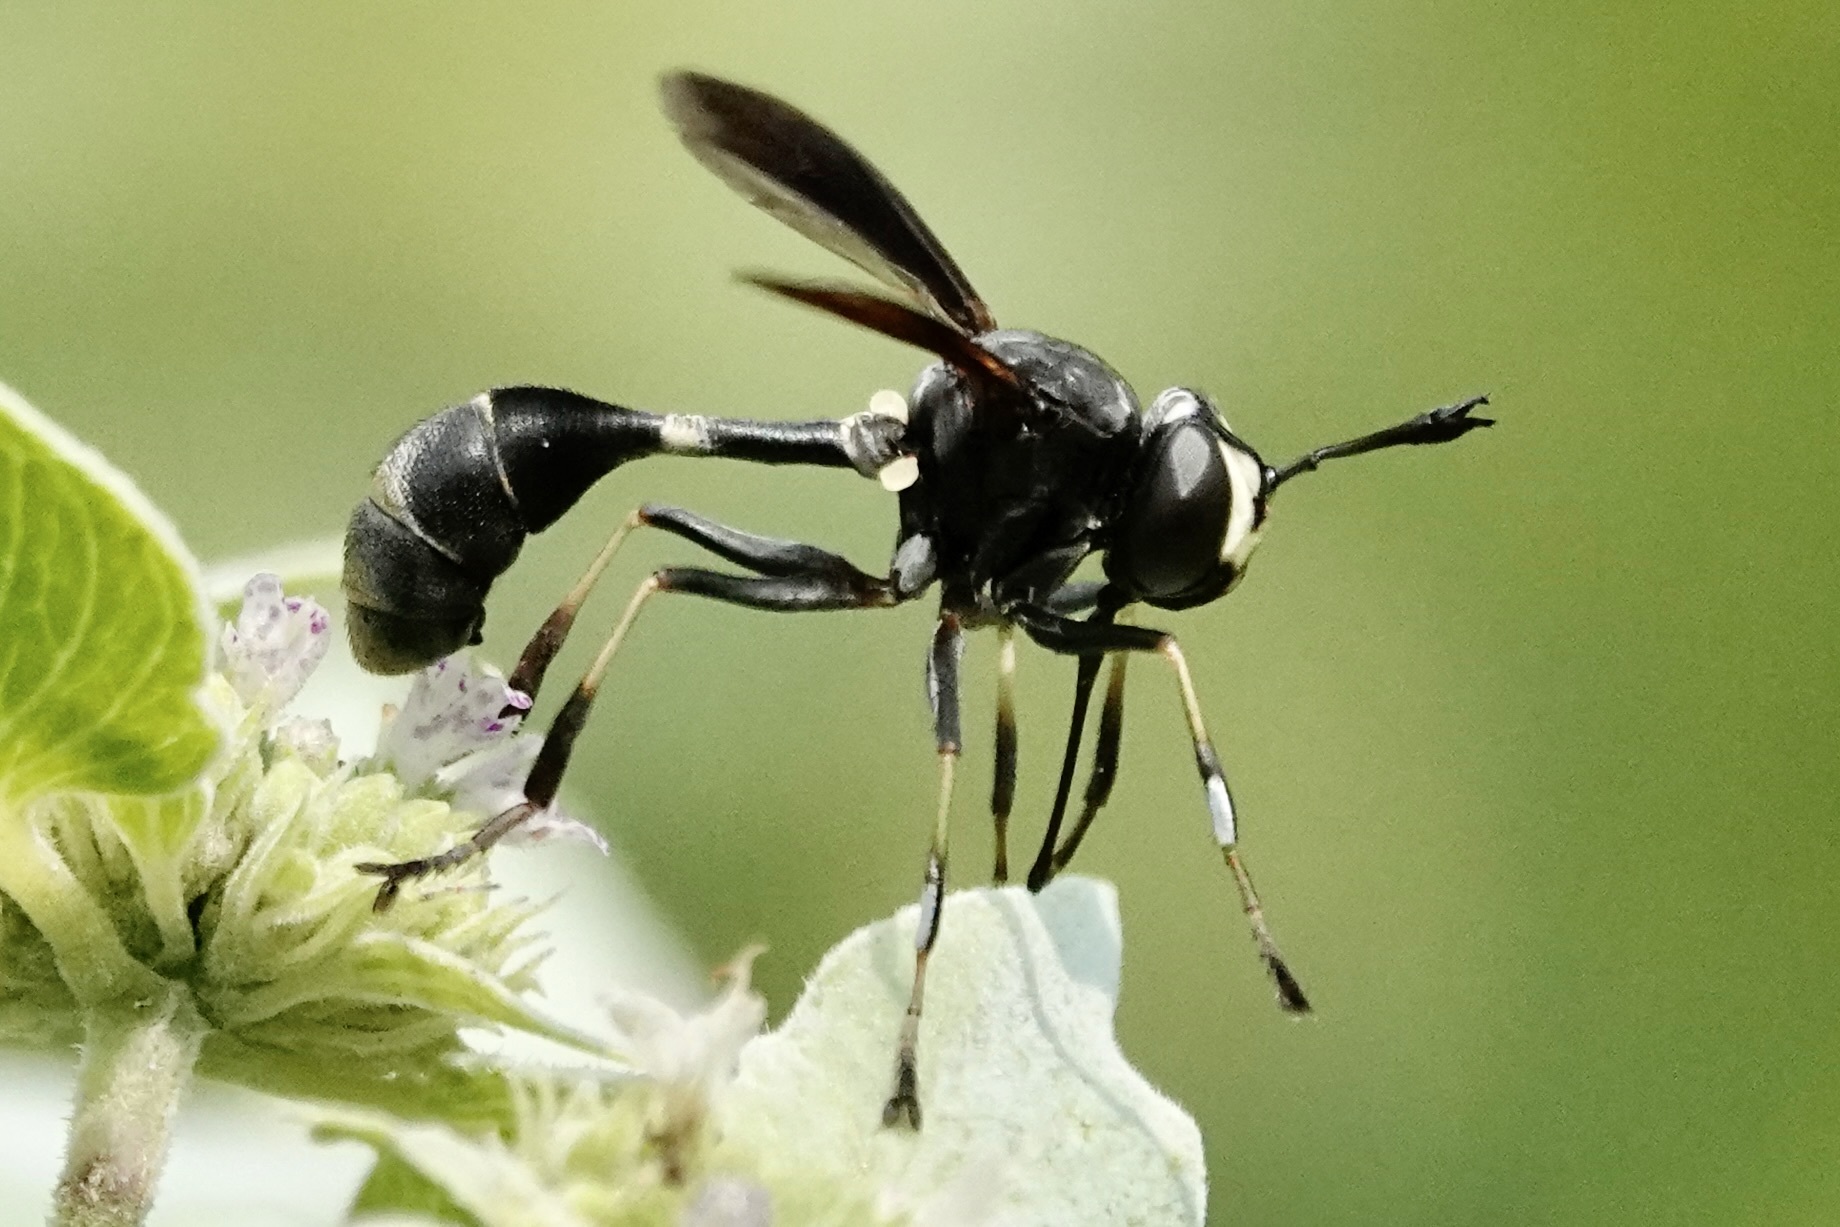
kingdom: Animalia
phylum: Arthropoda
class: Insecta
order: Diptera
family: Conopidae
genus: Physocephala
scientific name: Physocephala tibialis
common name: Common eastern physocephala
